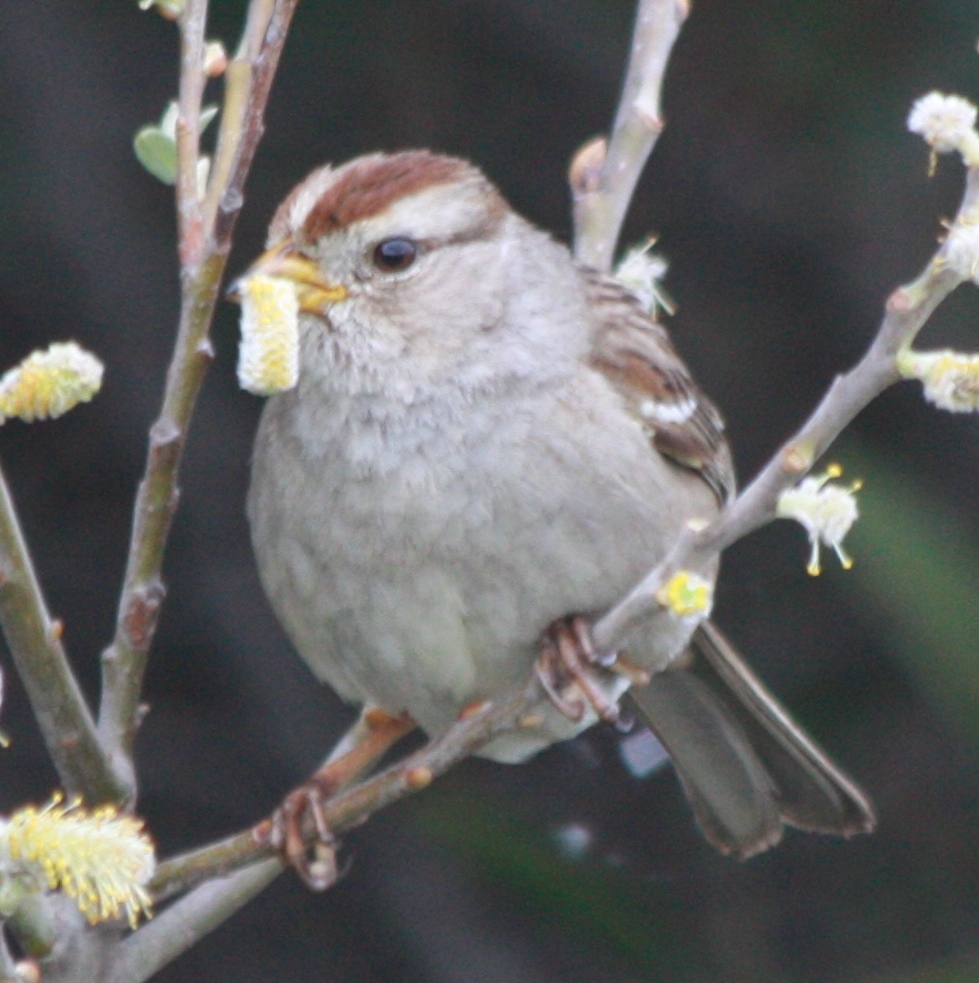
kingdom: Animalia
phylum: Chordata
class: Aves
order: Passeriformes
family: Passerellidae
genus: Zonotrichia
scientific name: Zonotrichia leucophrys
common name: White-crowned sparrow
